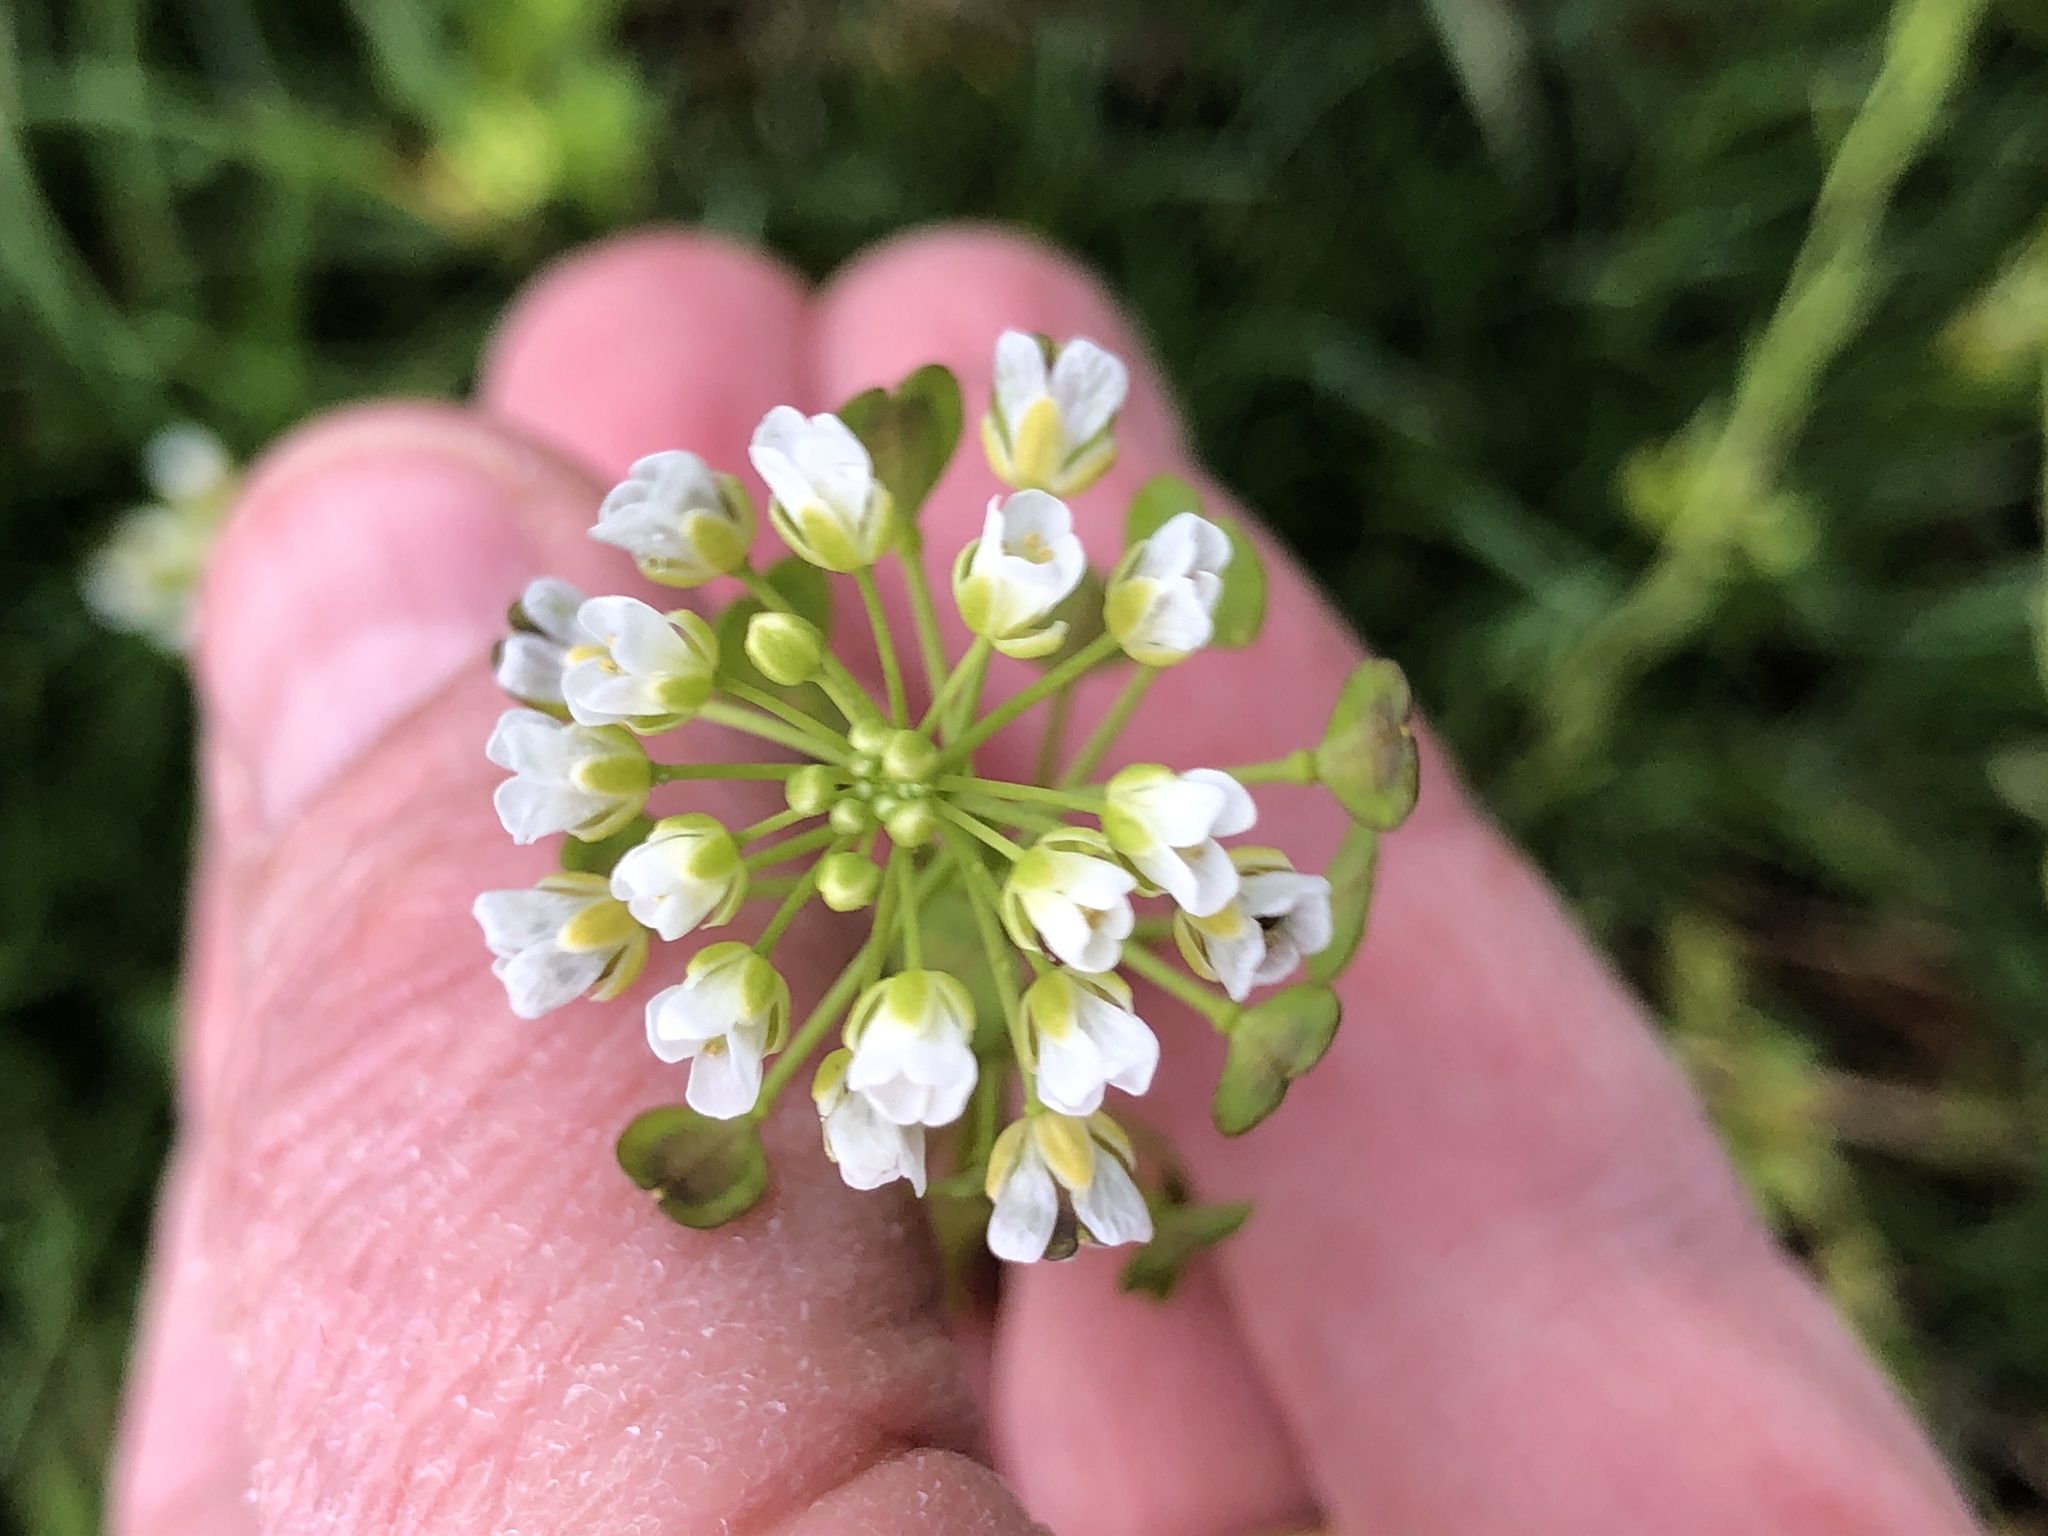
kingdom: Plantae
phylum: Tracheophyta
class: Magnoliopsida
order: Brassicales
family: Brassicaceae
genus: Thlaspi
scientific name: Thlaspi arvense
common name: Field pennycress
